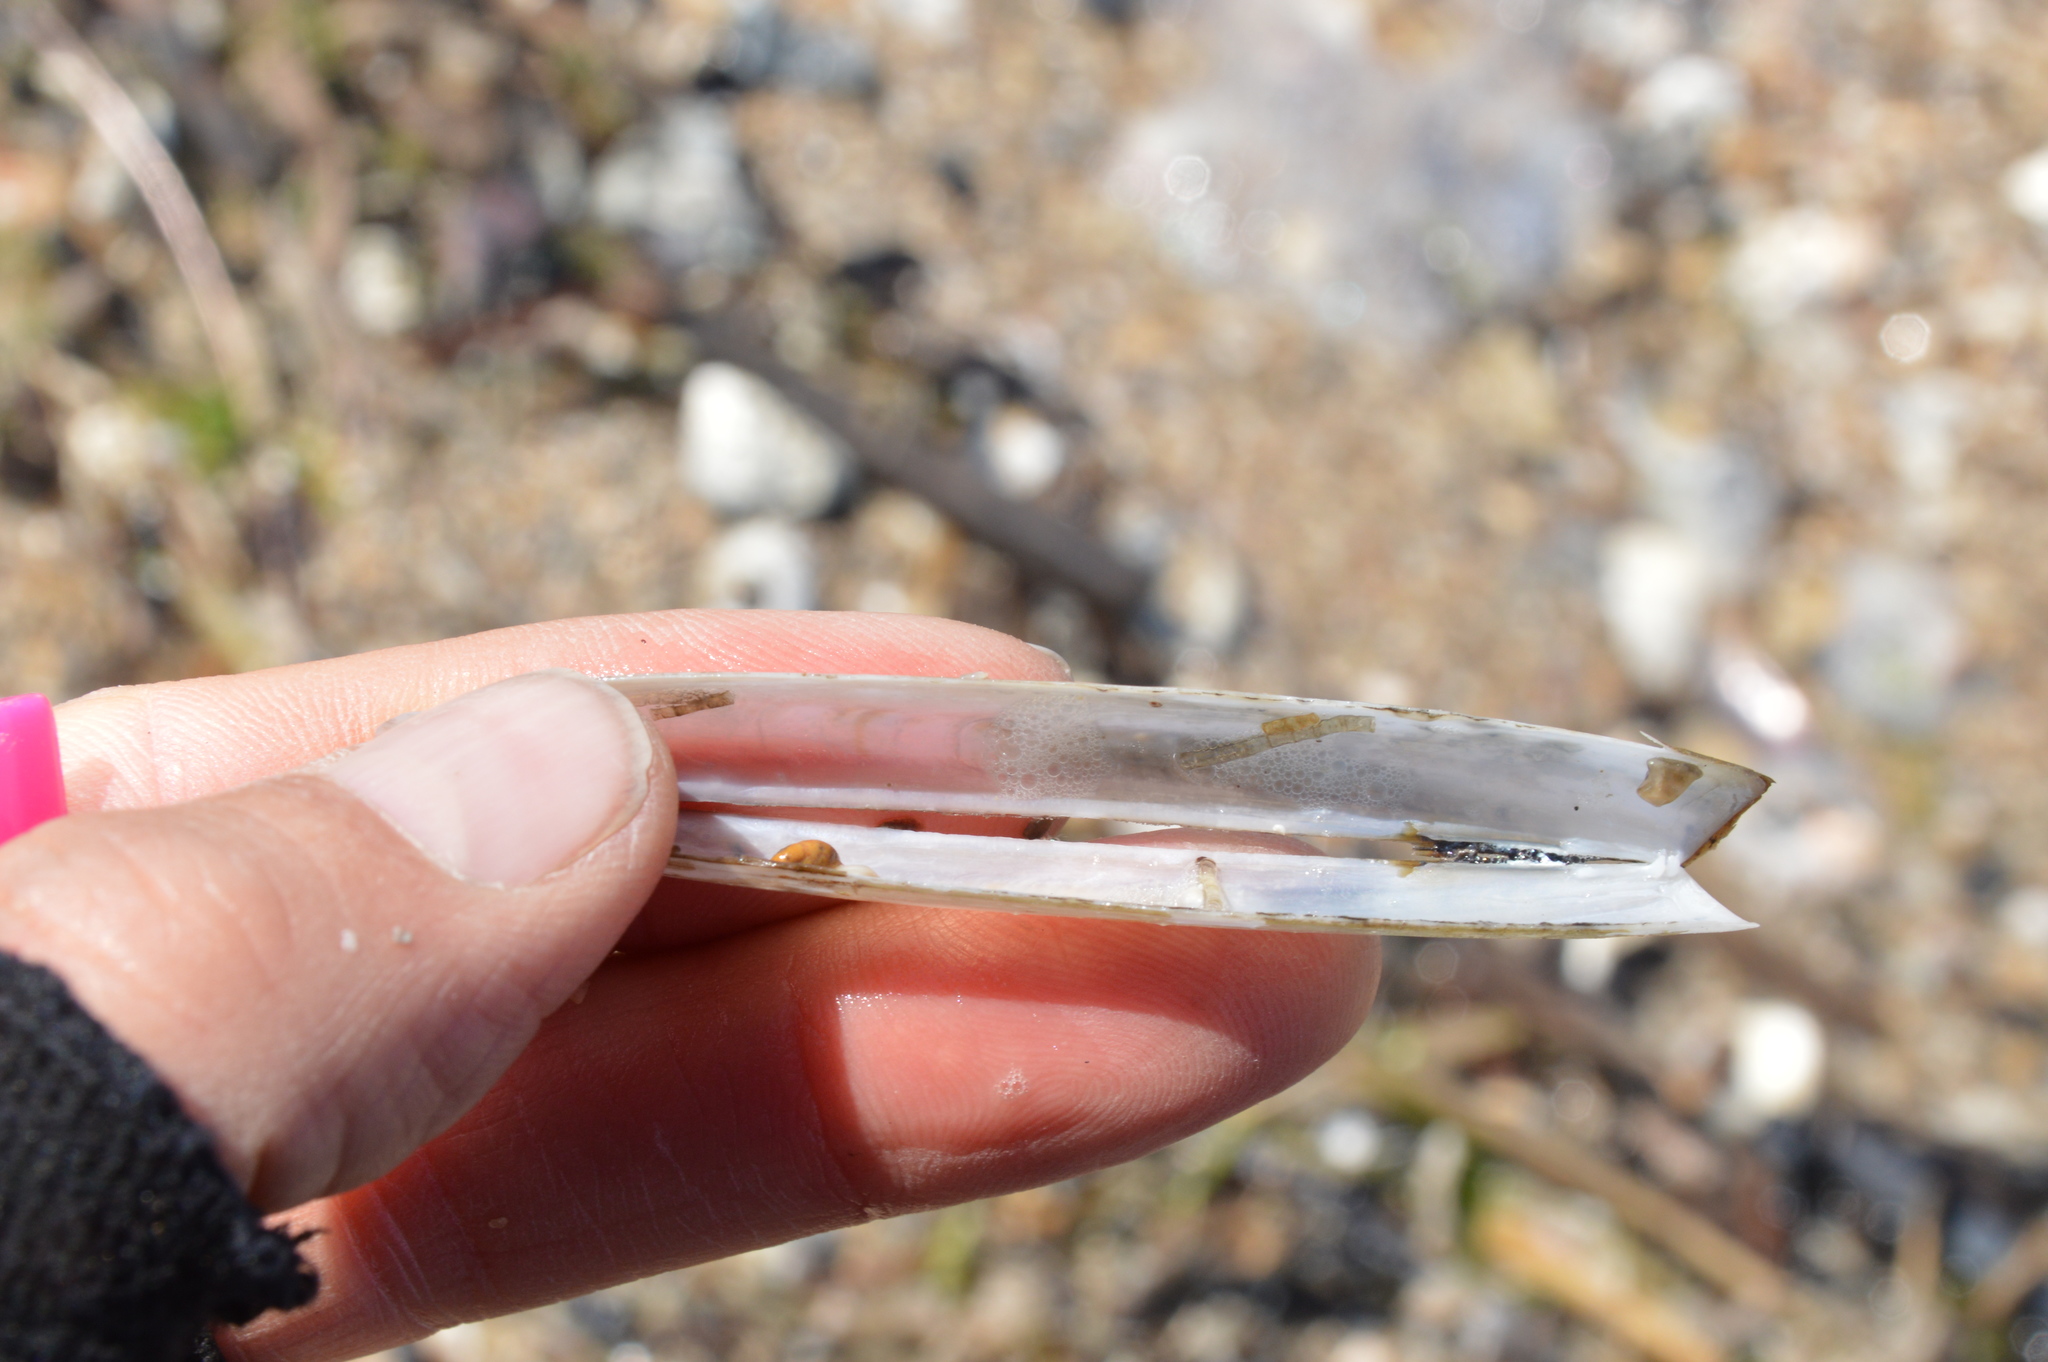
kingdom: Animalia
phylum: Mollusca
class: Bivalvia
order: Adapedonta
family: Pharidae
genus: Ensis
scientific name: Ensis megistus
